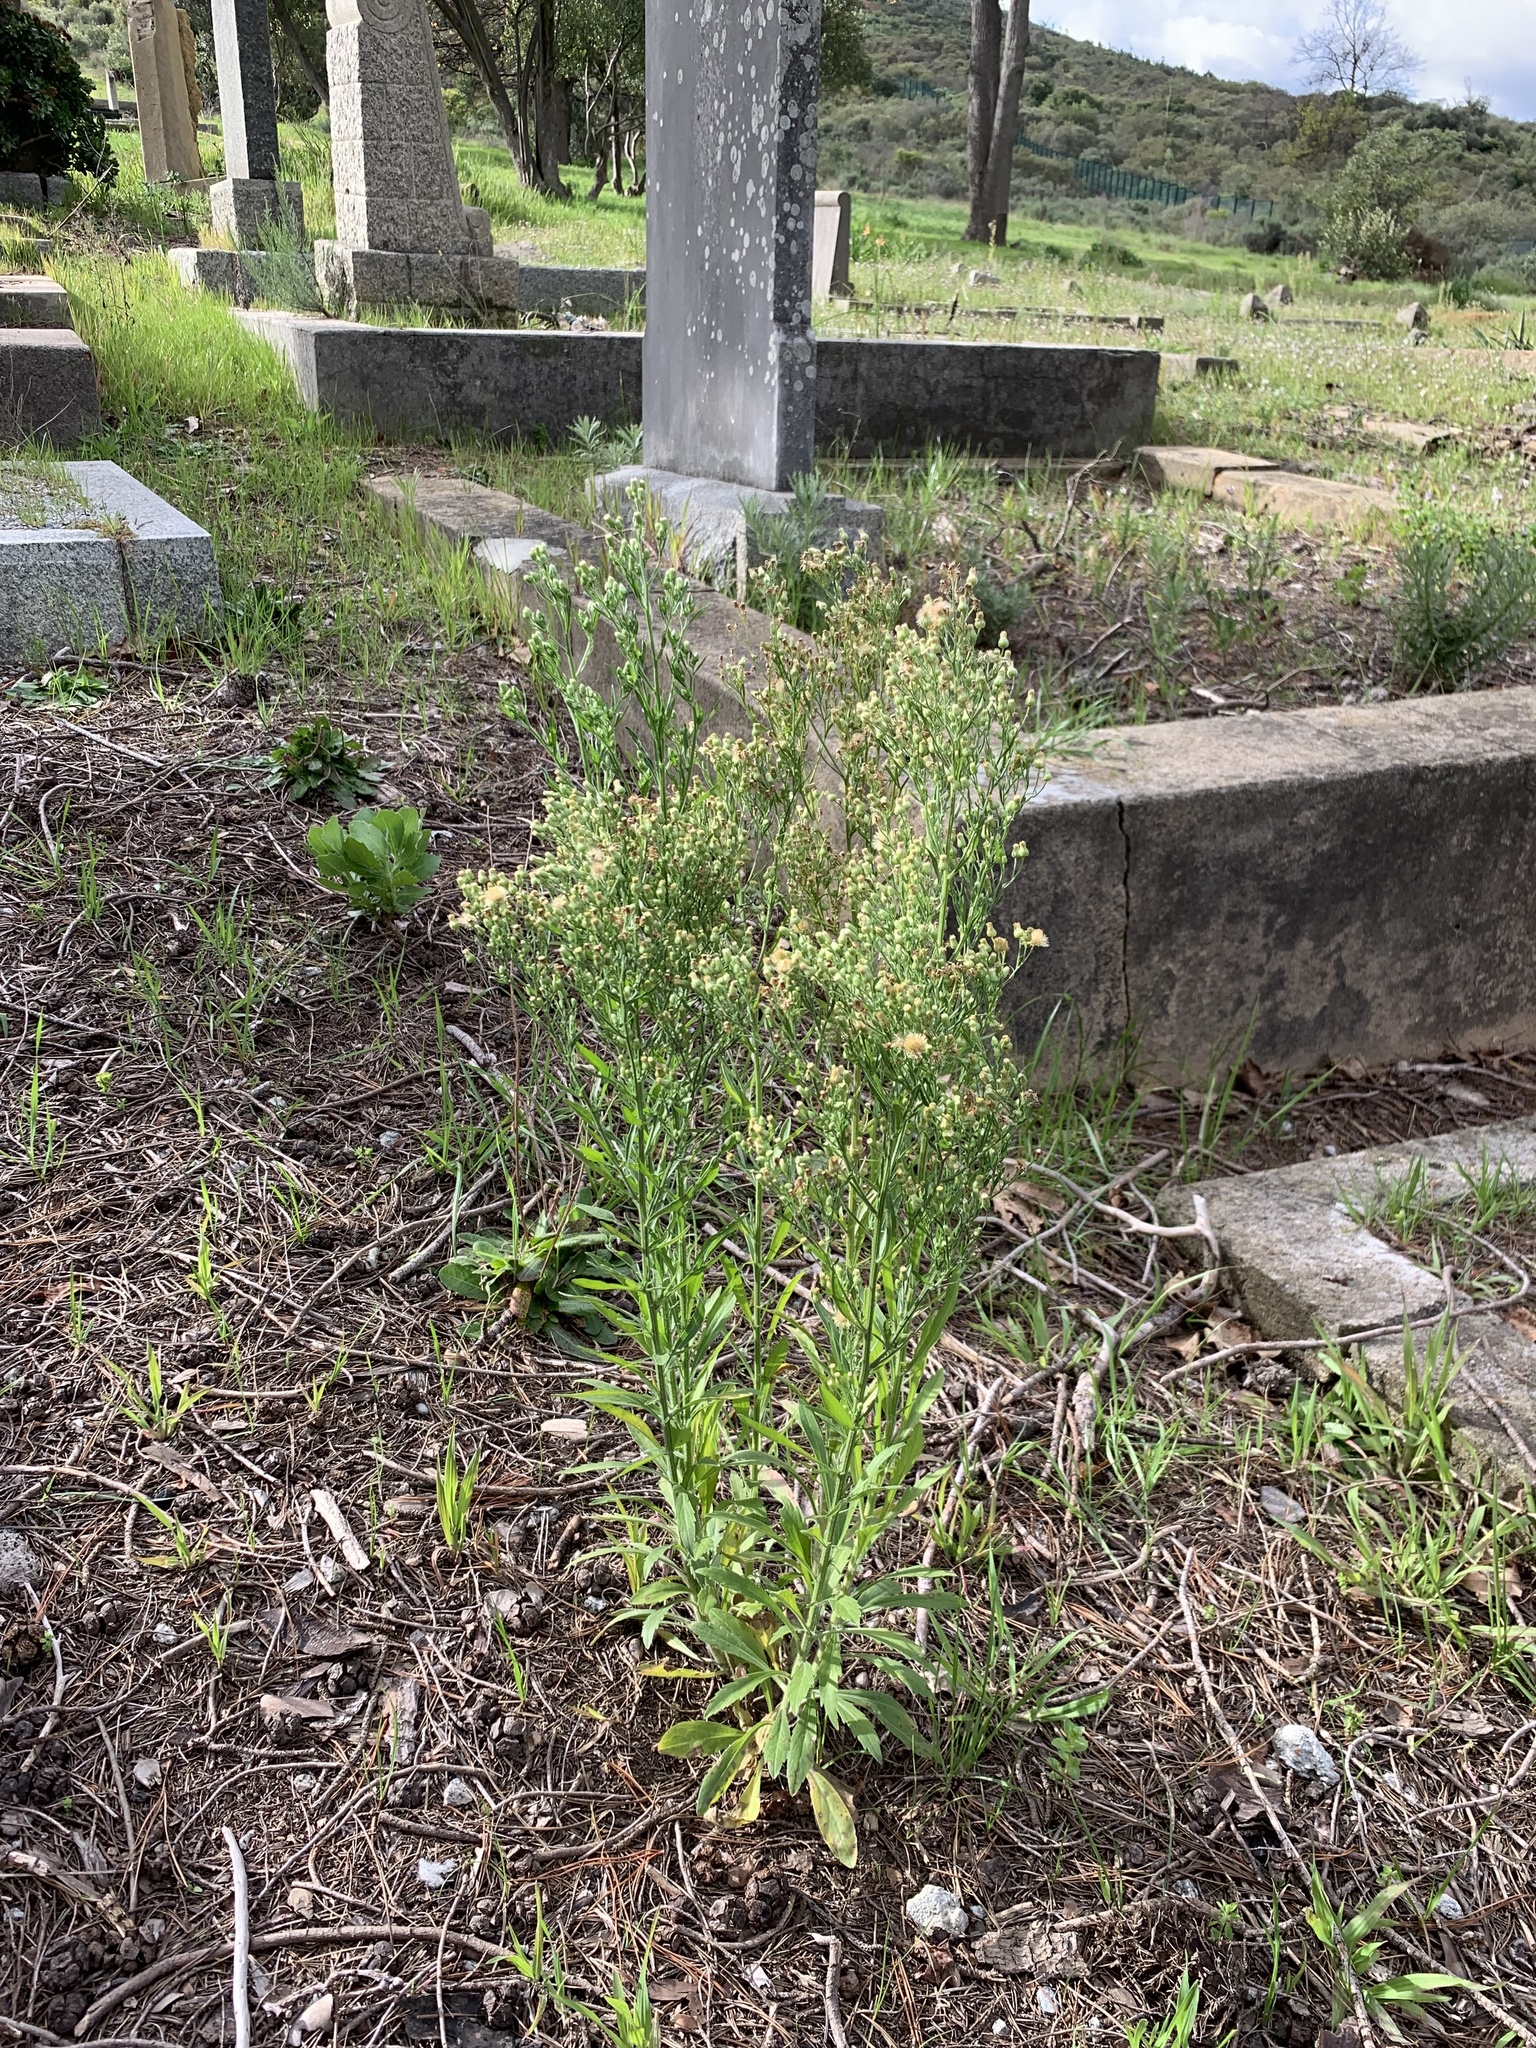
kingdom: Plantae
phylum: Tracheophyta
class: Magnoliopsida
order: Asterales
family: Asteraceae
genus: Erigeron
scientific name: Erigeron sumatrensis
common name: Daisy
